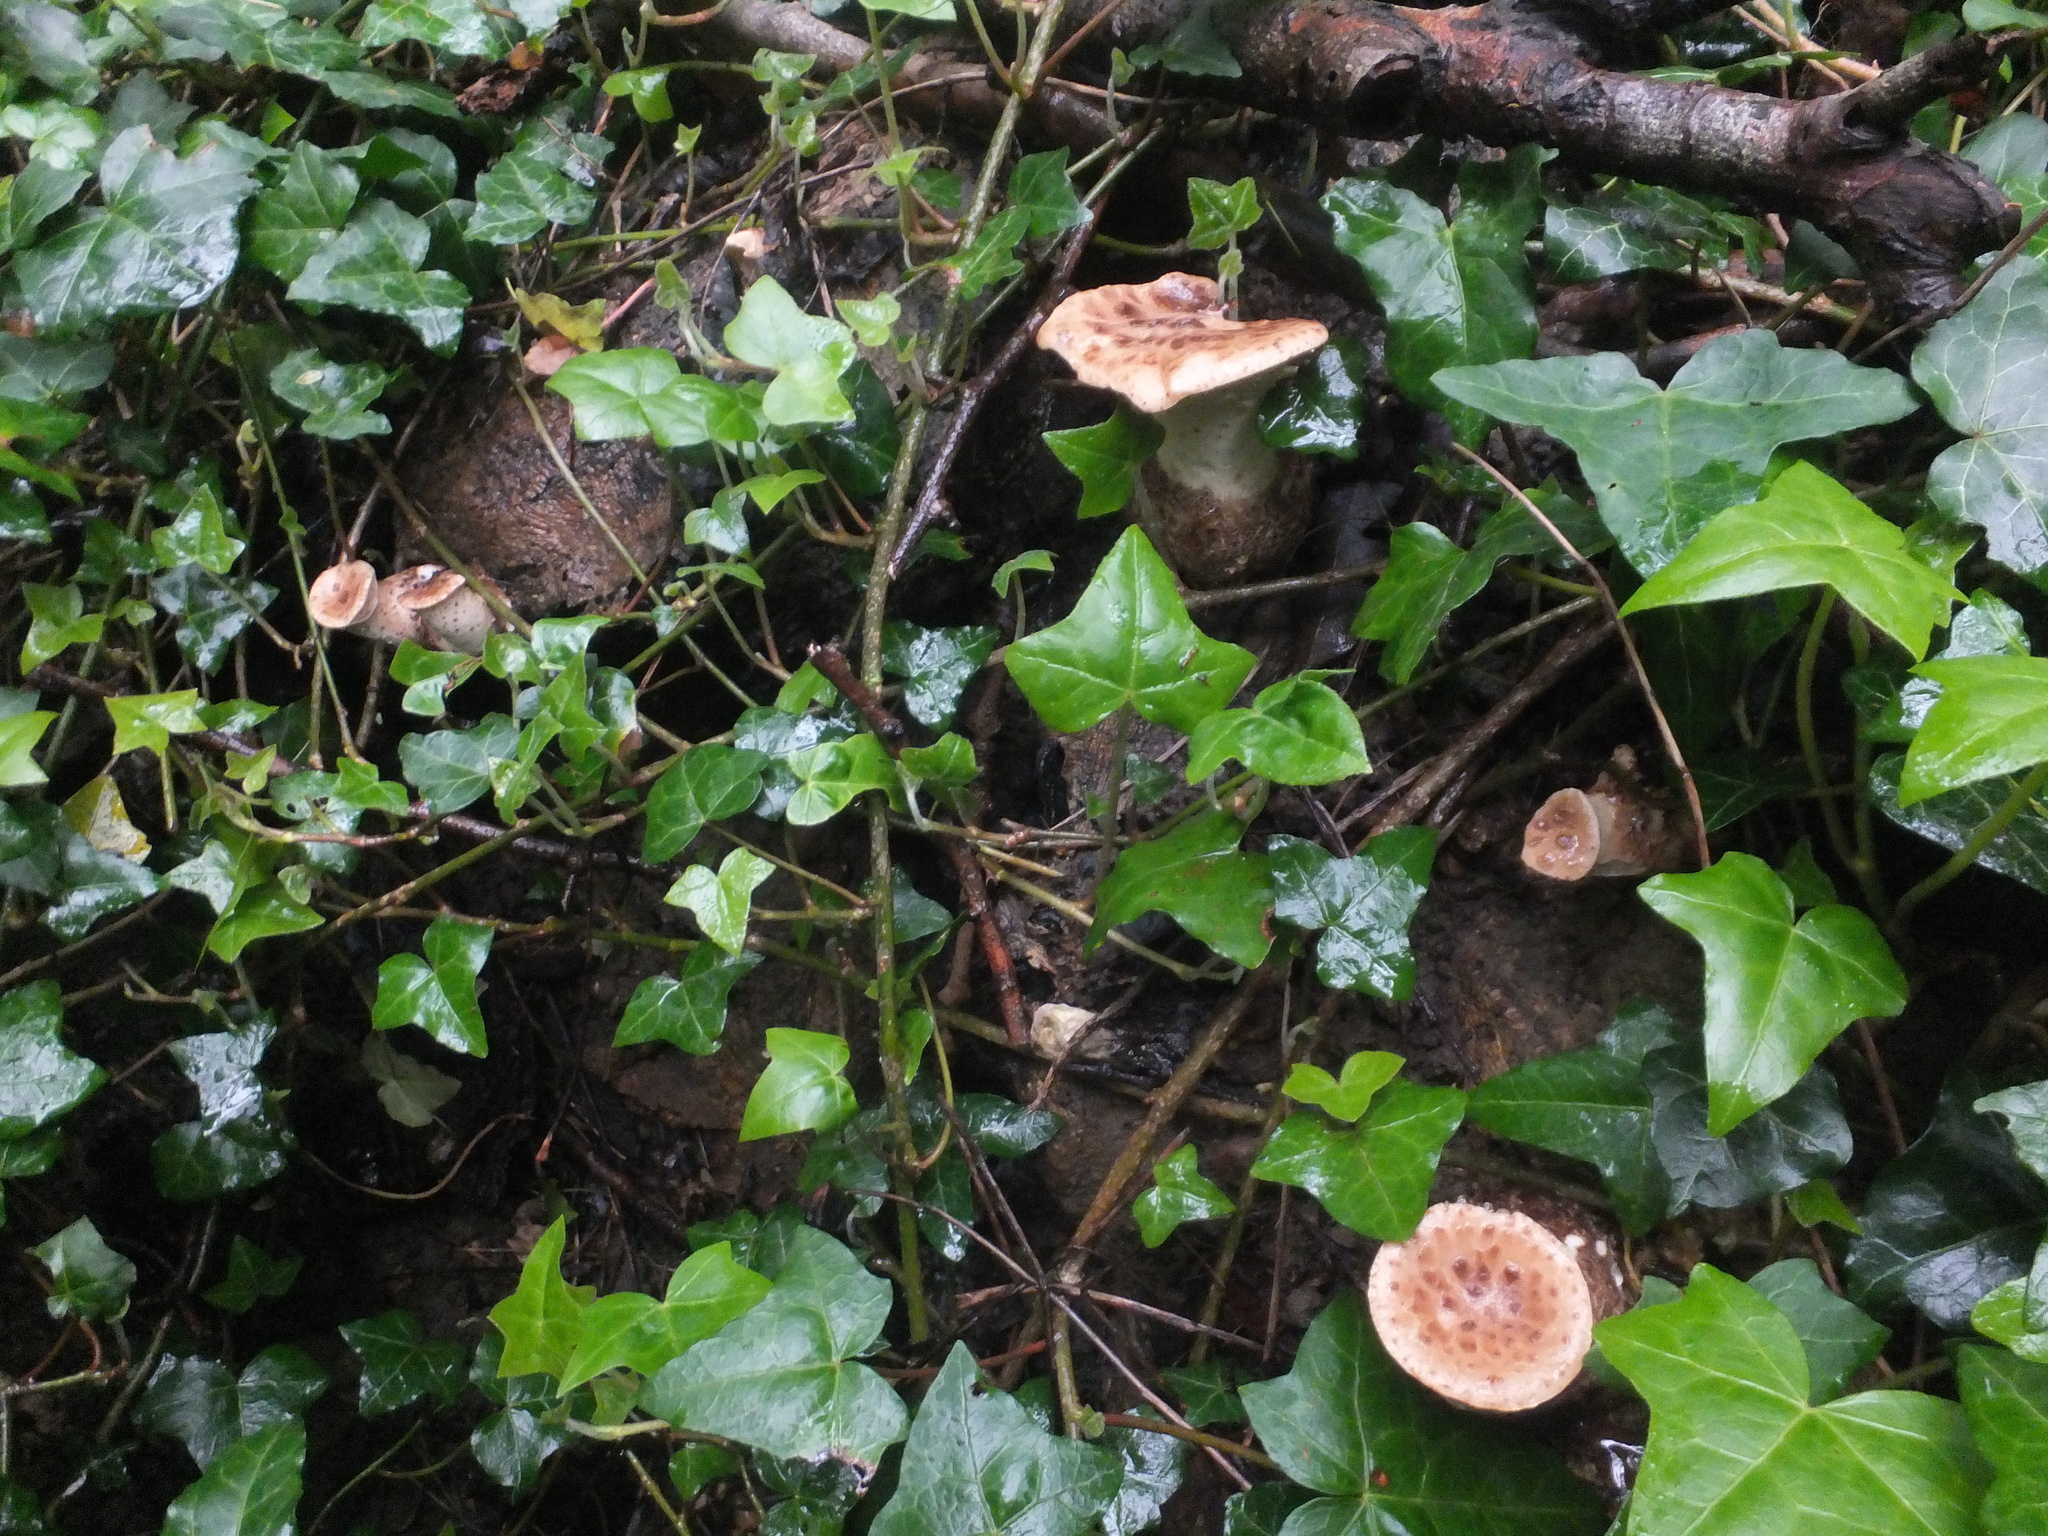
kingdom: Fungi
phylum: Basidiomycota
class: Agaricomycetes
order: Polyporales
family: Polyporaceae
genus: Cerioporus
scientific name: Cerioporus squamosus
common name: Dryad's saddle
